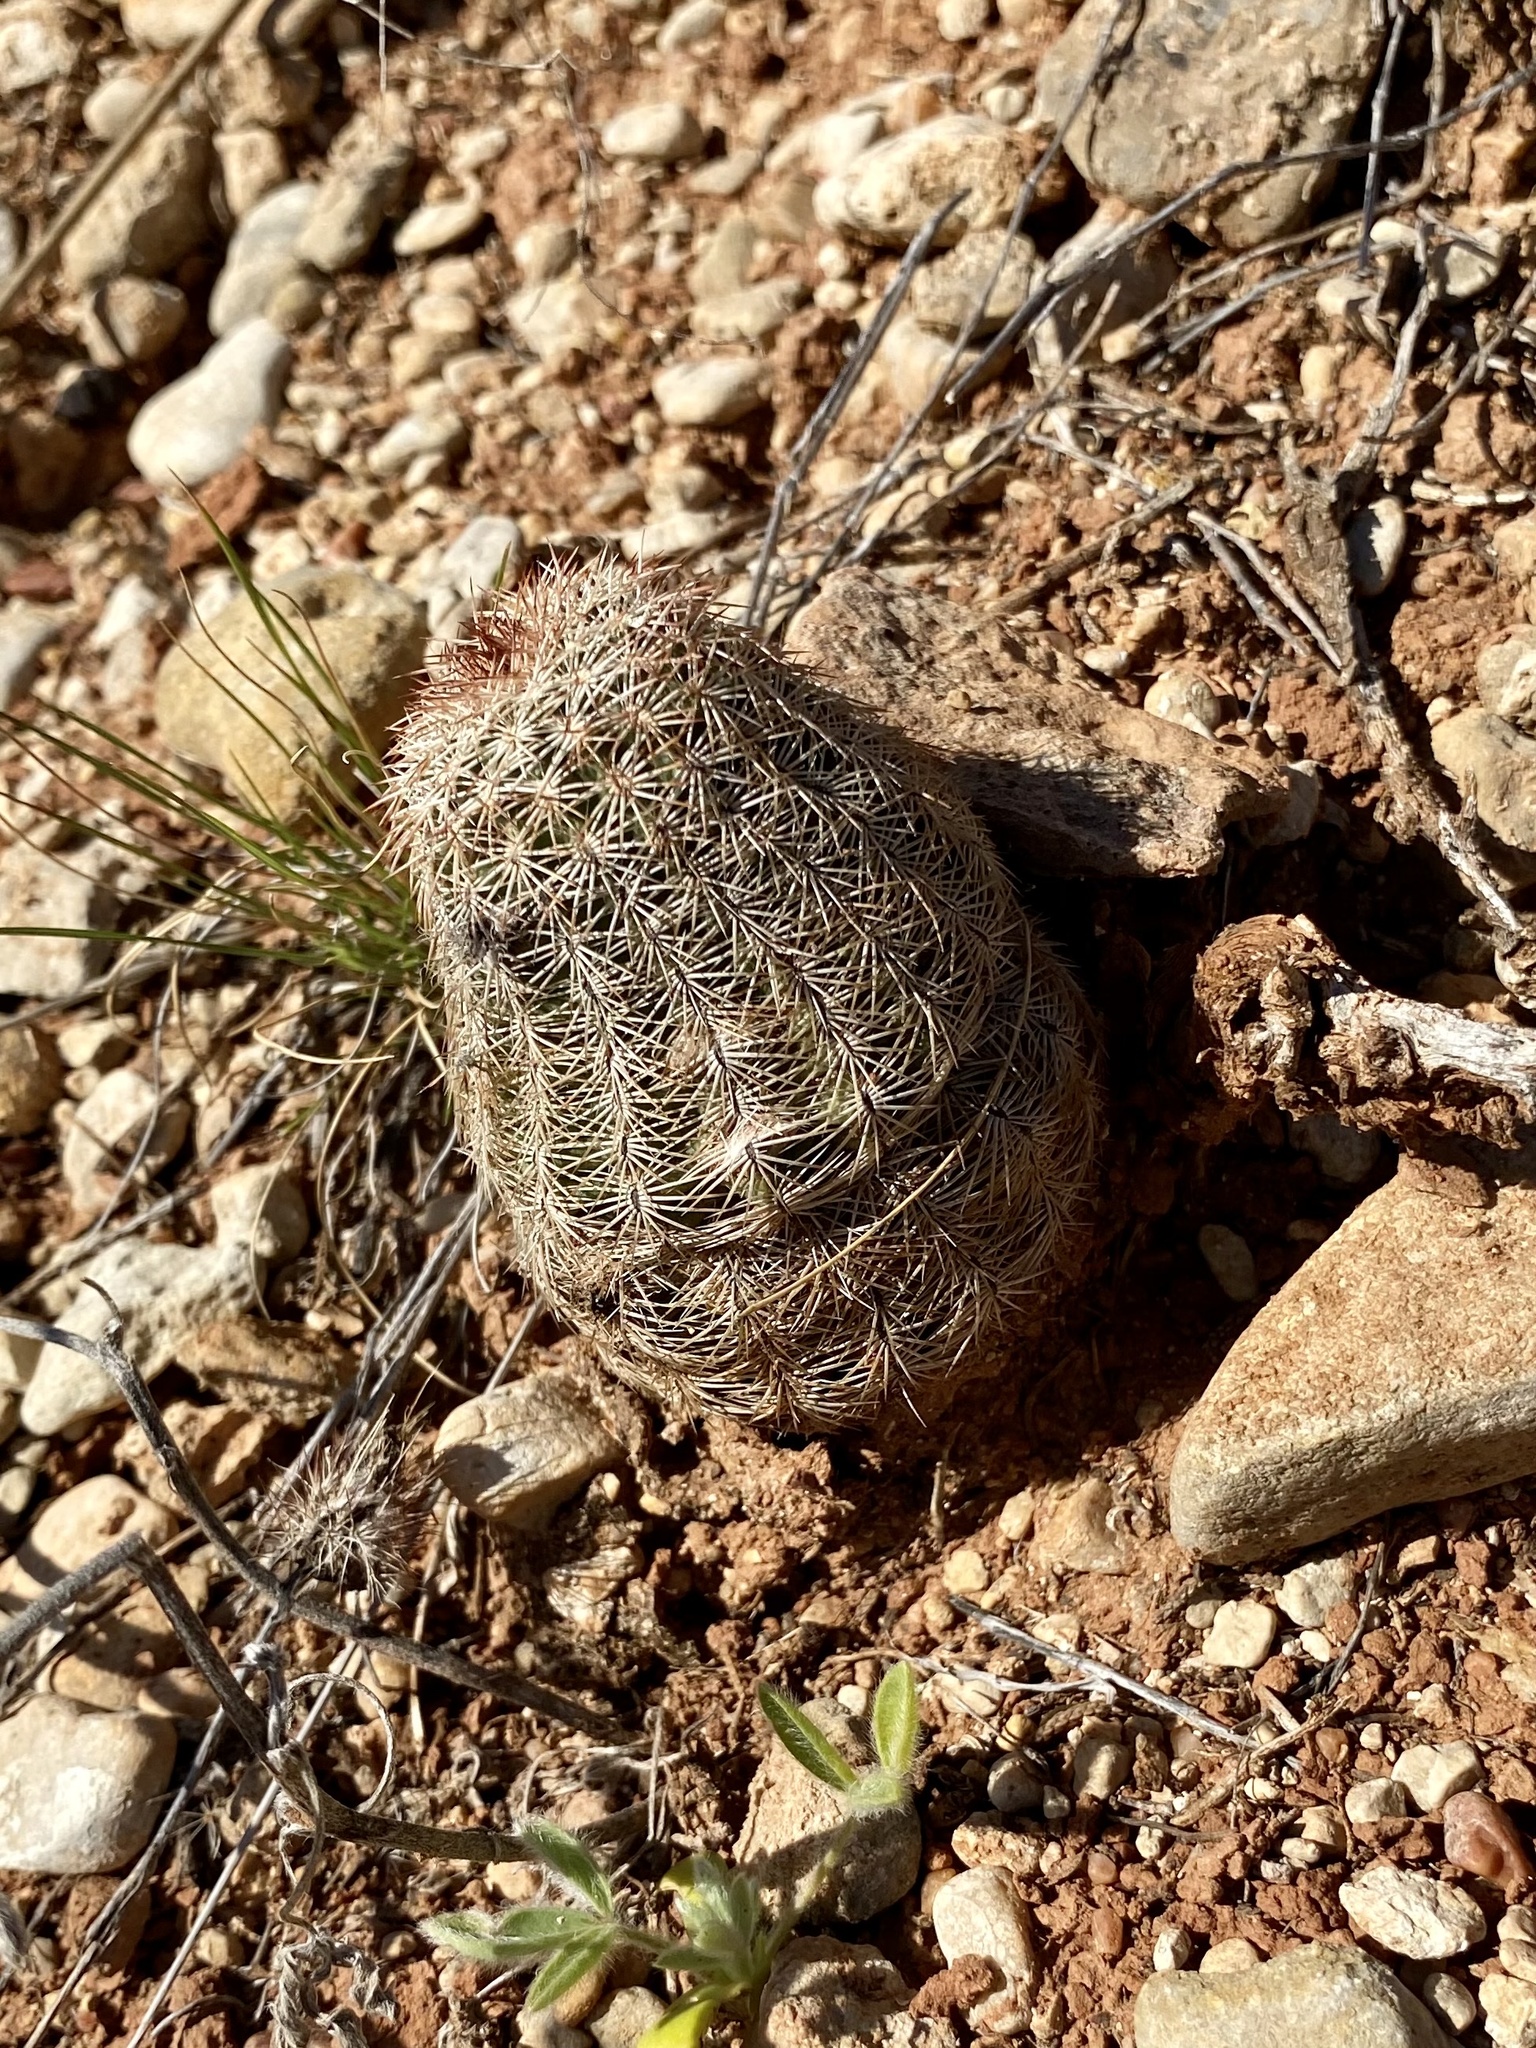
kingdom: Plantae
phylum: Tracheophyta
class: Magnoliopsida
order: Caryophyllales
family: Cactaceae
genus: Echinocereus
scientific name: Echinocereus reichenbachii
